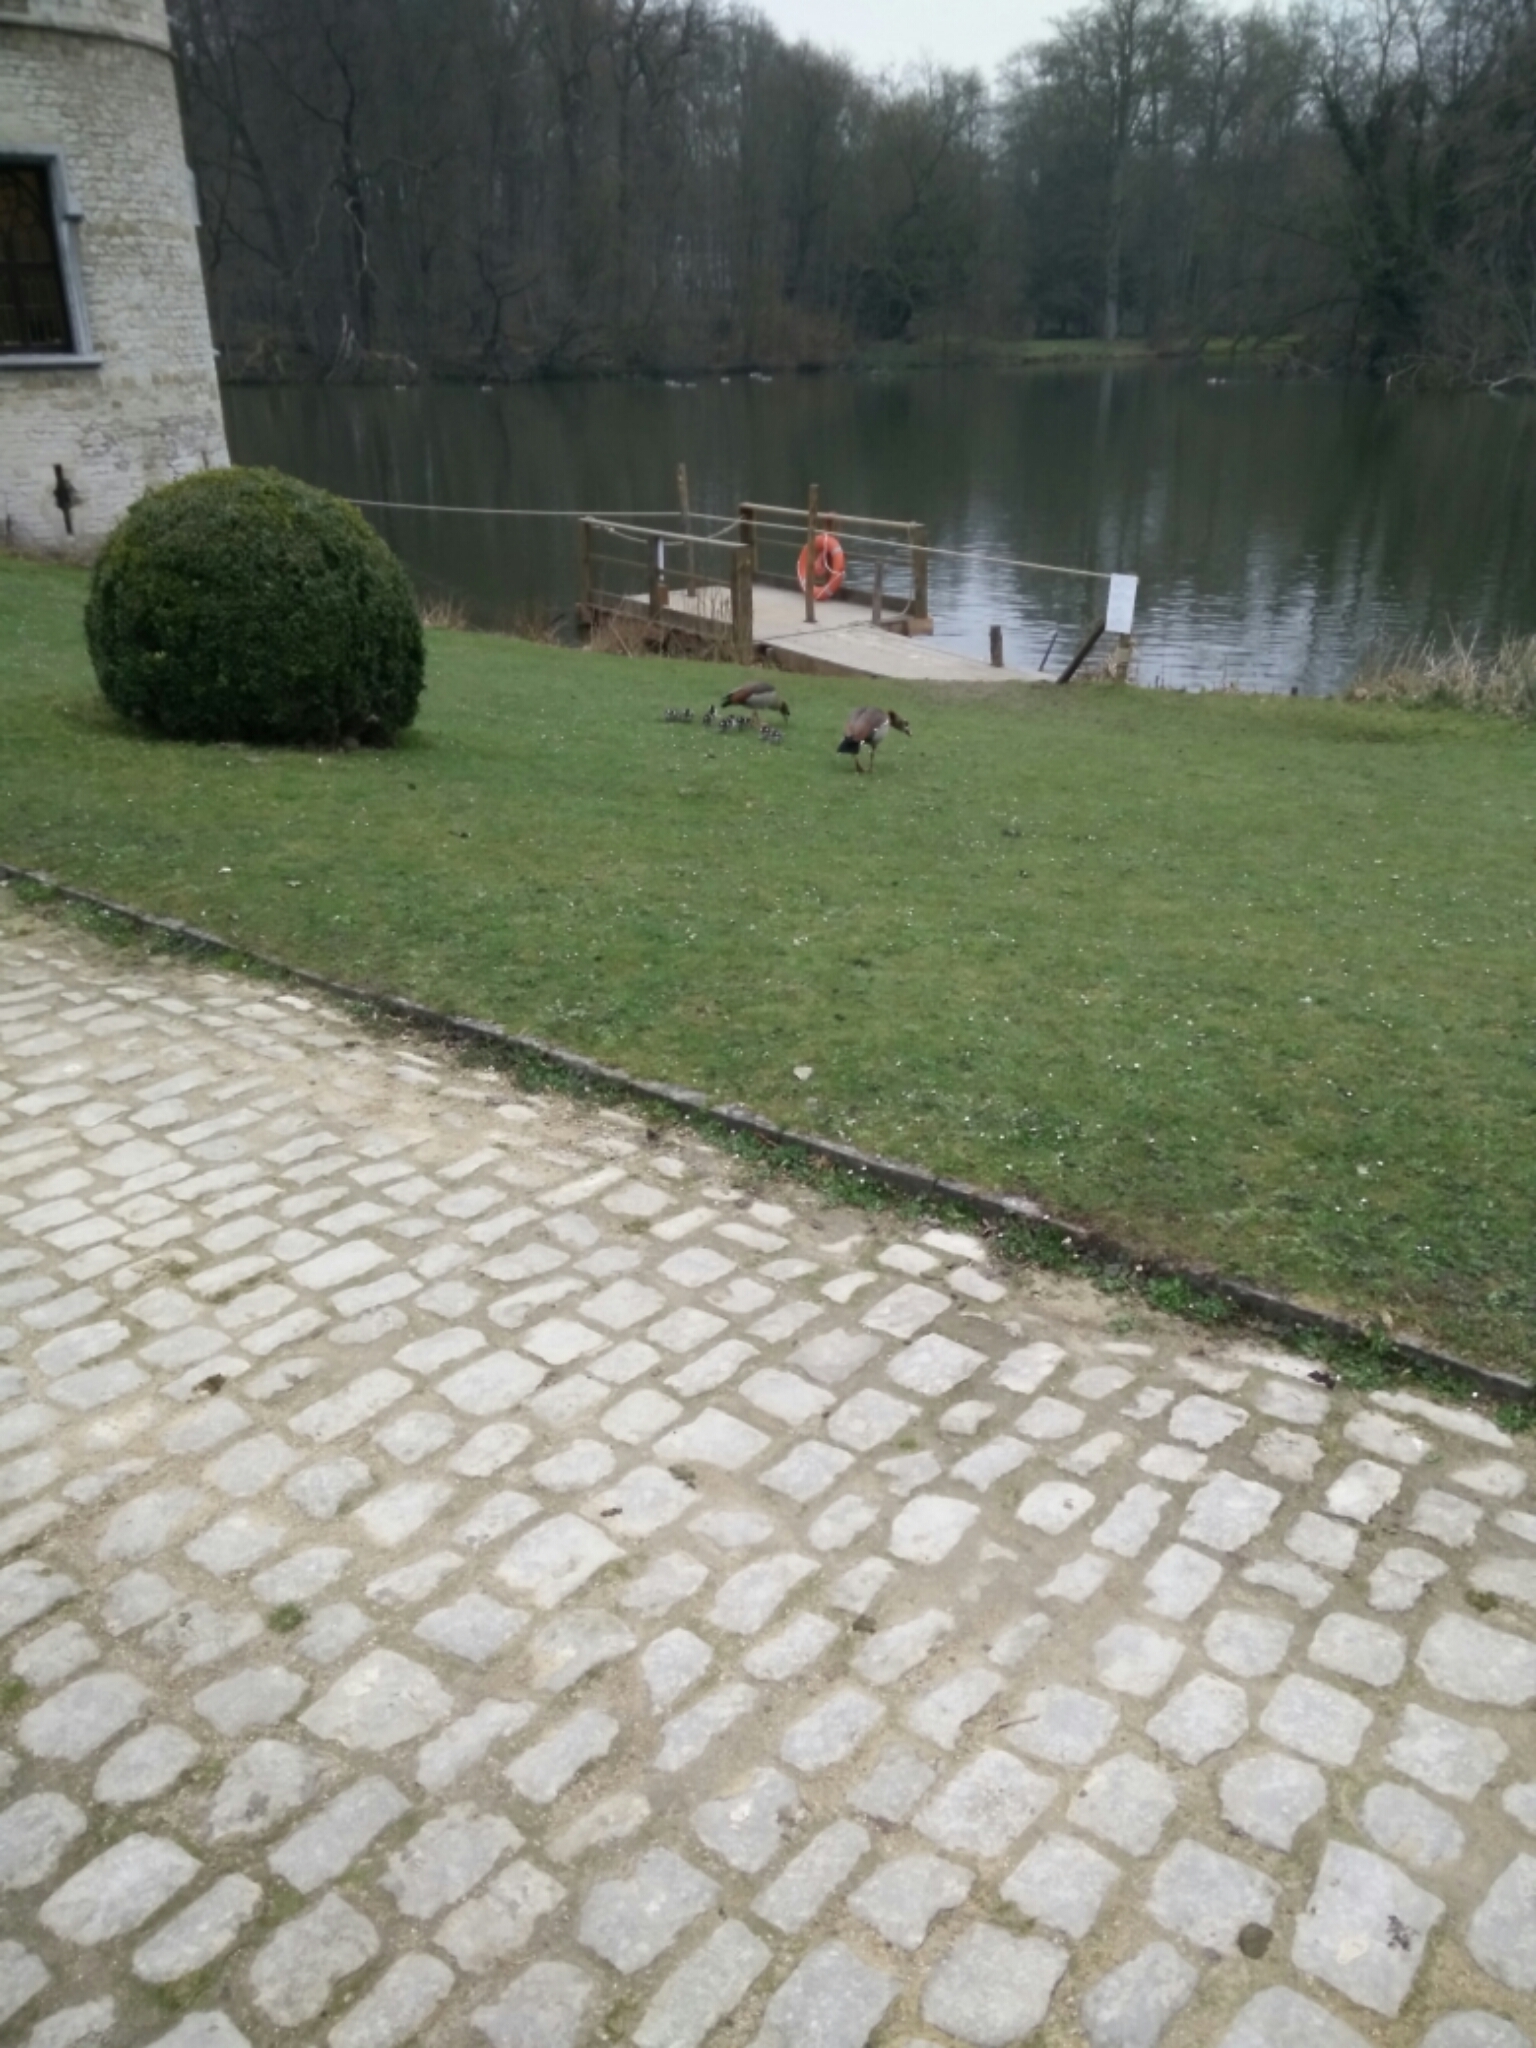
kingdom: Animalia
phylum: Chordata
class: Aves
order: Anseriformes
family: Anatidae
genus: Alopochen
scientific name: Alopochen aegyptiaca
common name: Egyptian goose
